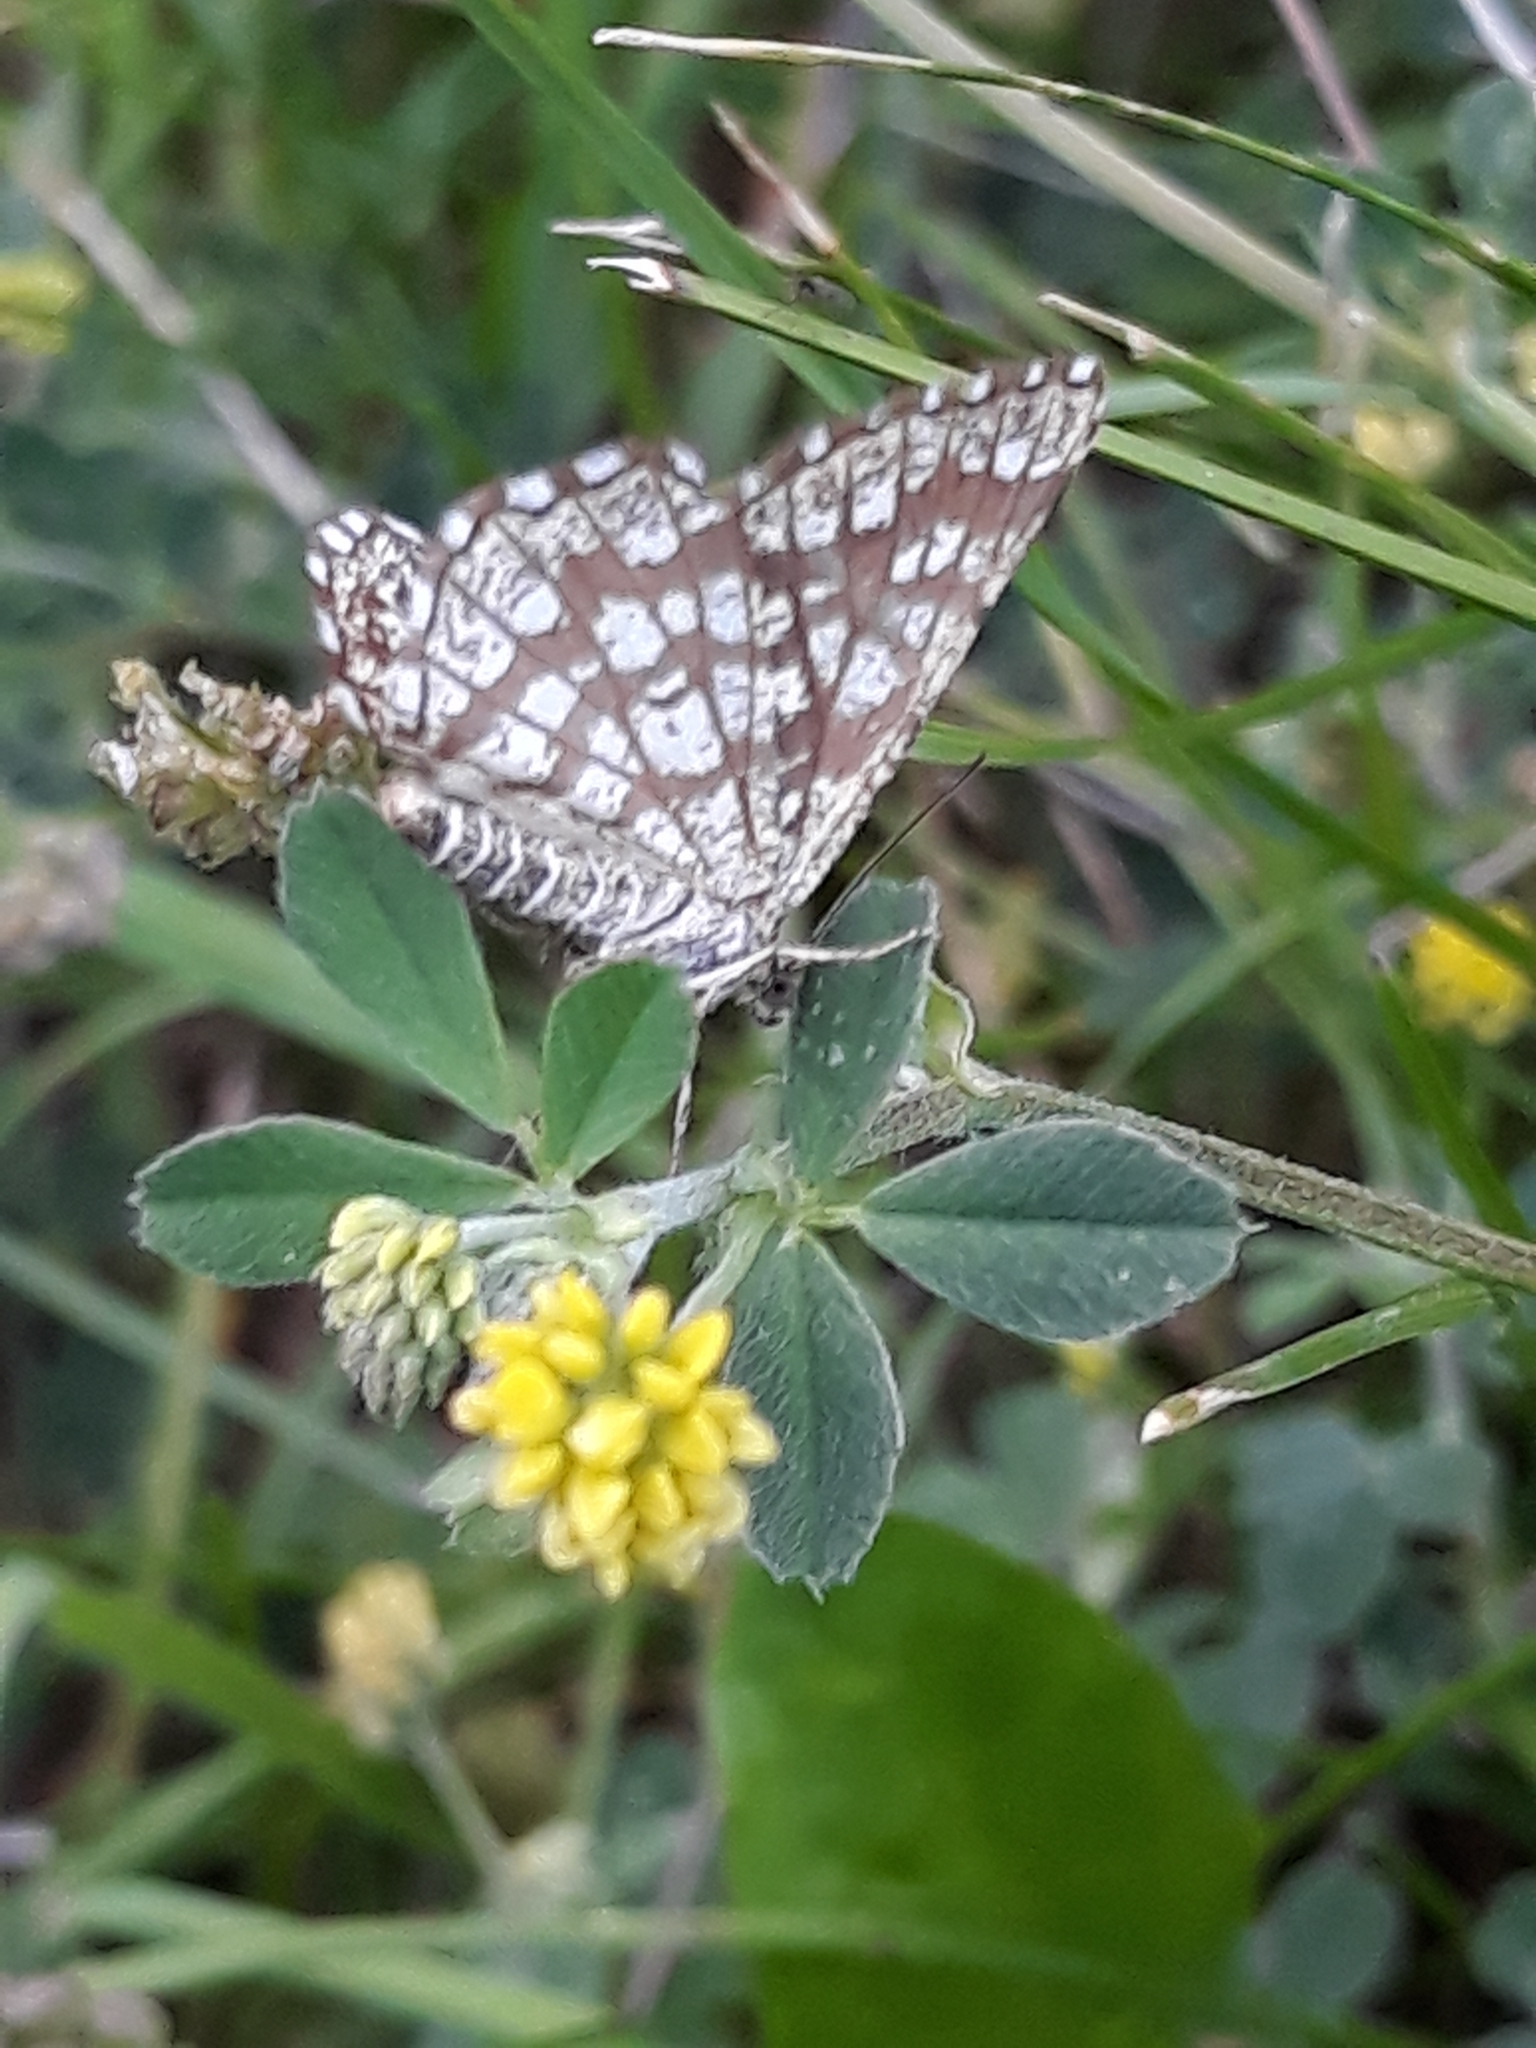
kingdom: Animalia
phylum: Arthropoda
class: Insecta
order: Lepidoptera
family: Geometridae
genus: Chiasmia
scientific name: Chiasmia clathrata
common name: Latticed heath
